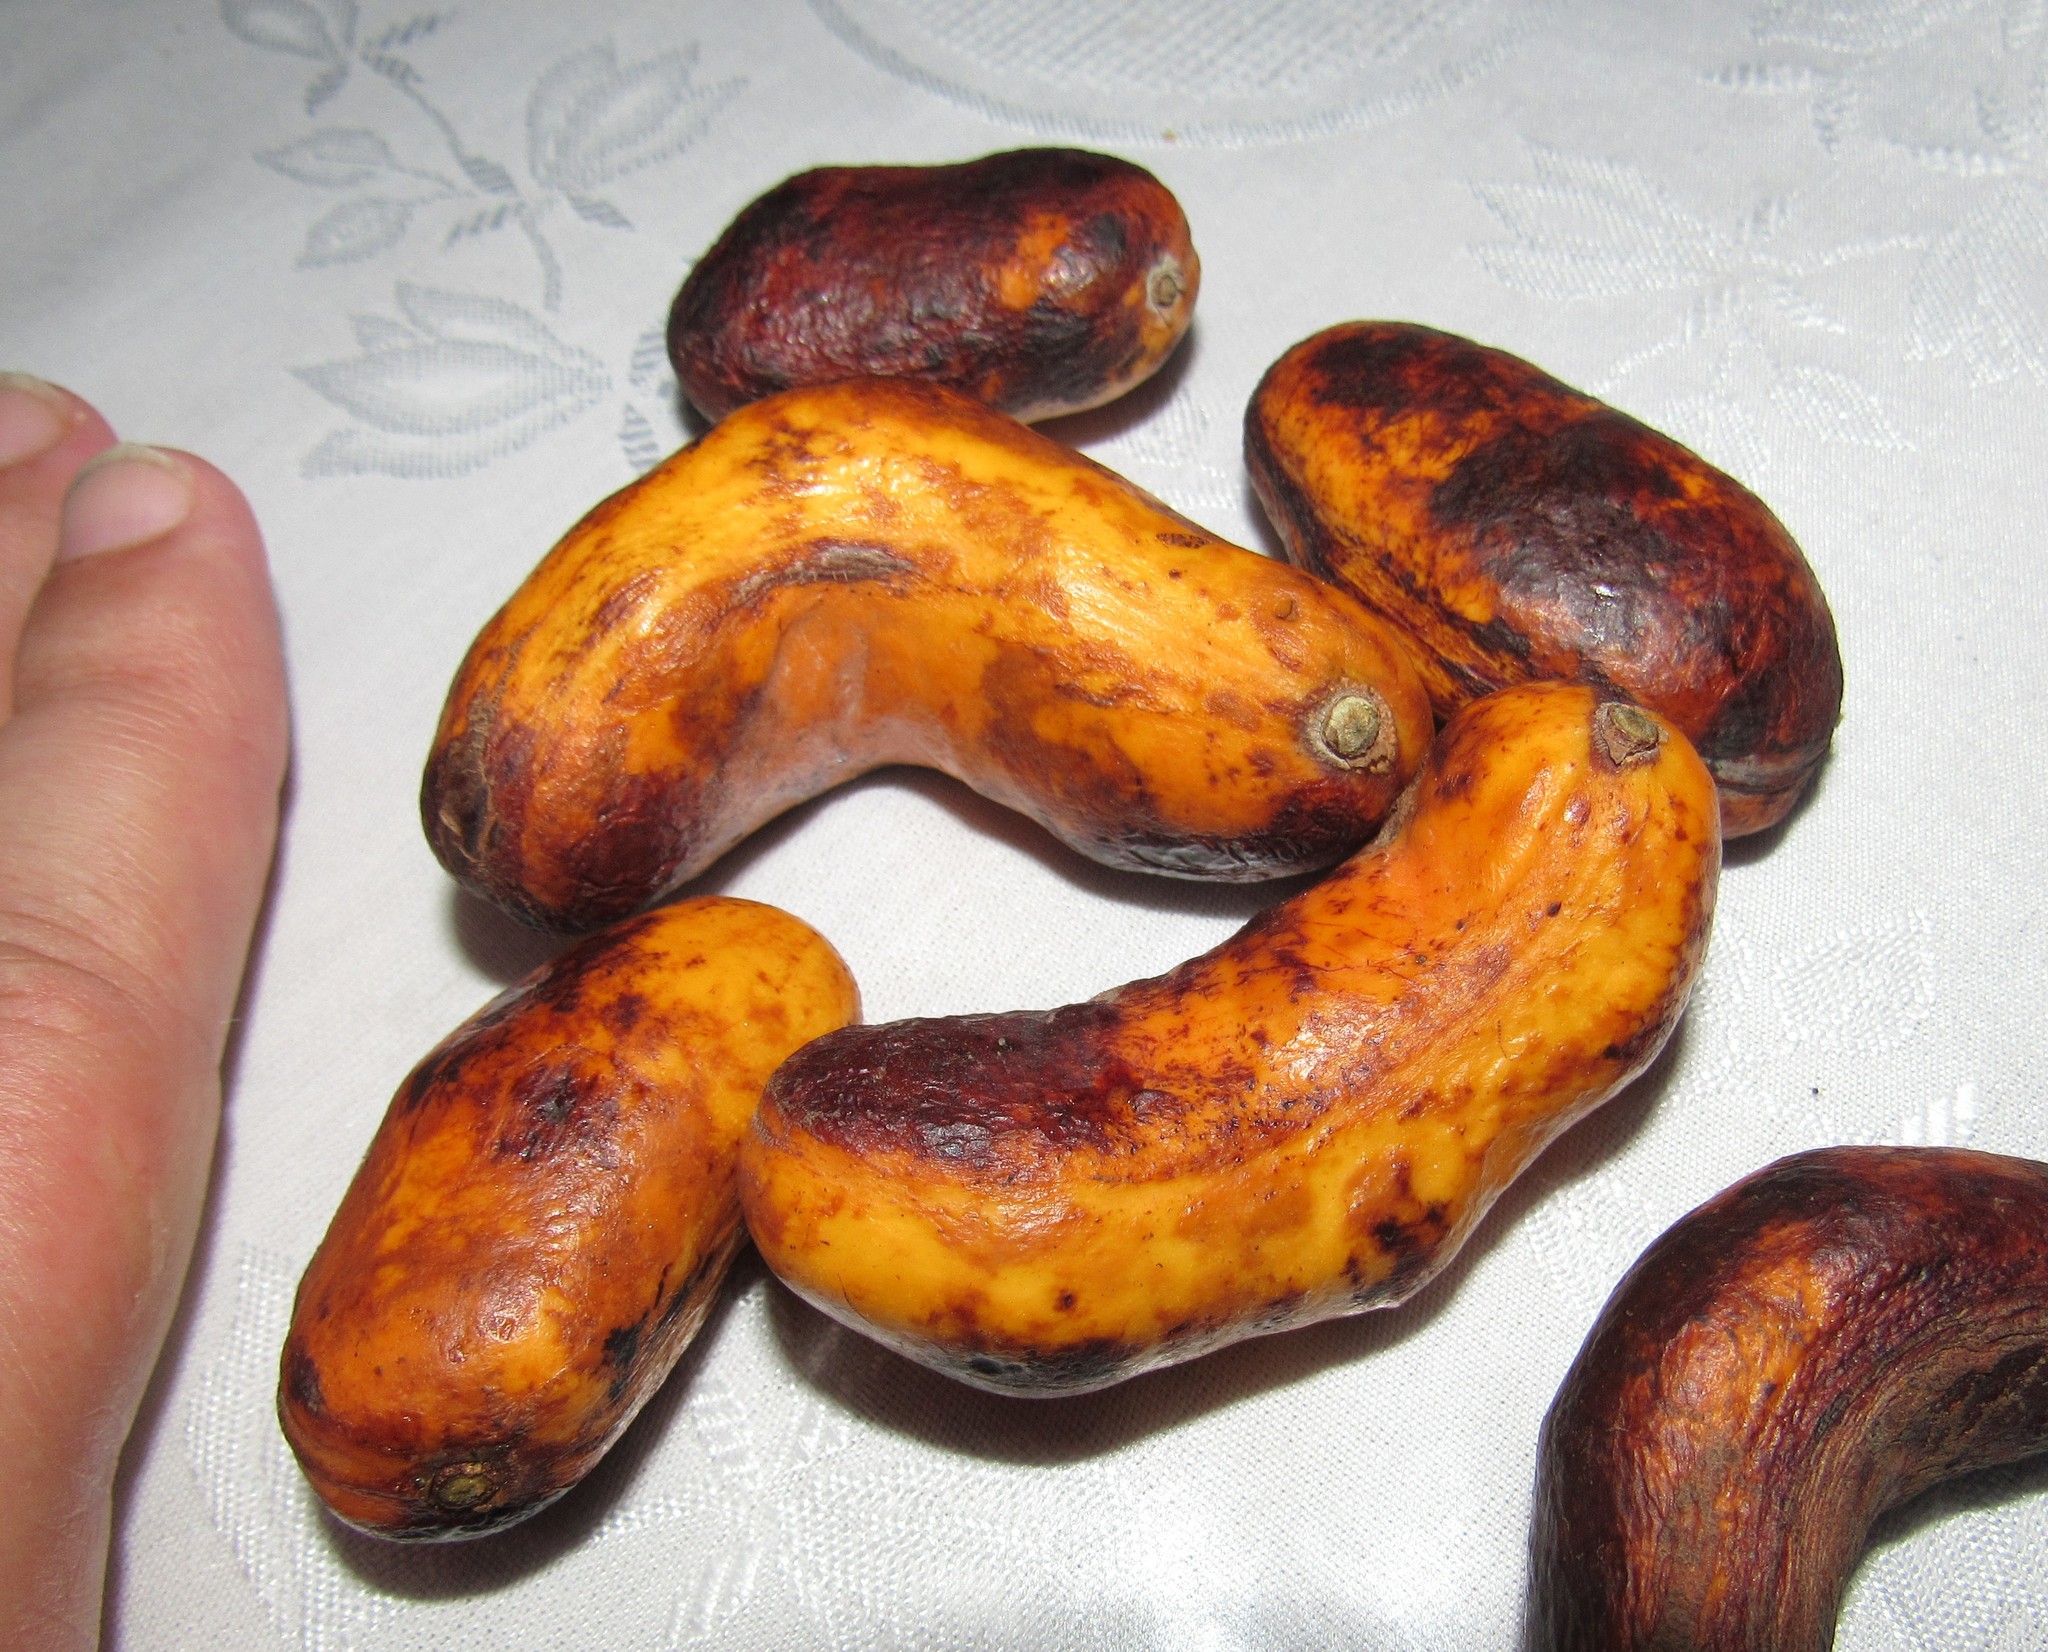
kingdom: Plantae
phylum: Tracheophyta
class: Magnoliopsida
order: Fabales
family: Fabaceae
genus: Inga
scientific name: Inga lentiscifolia
